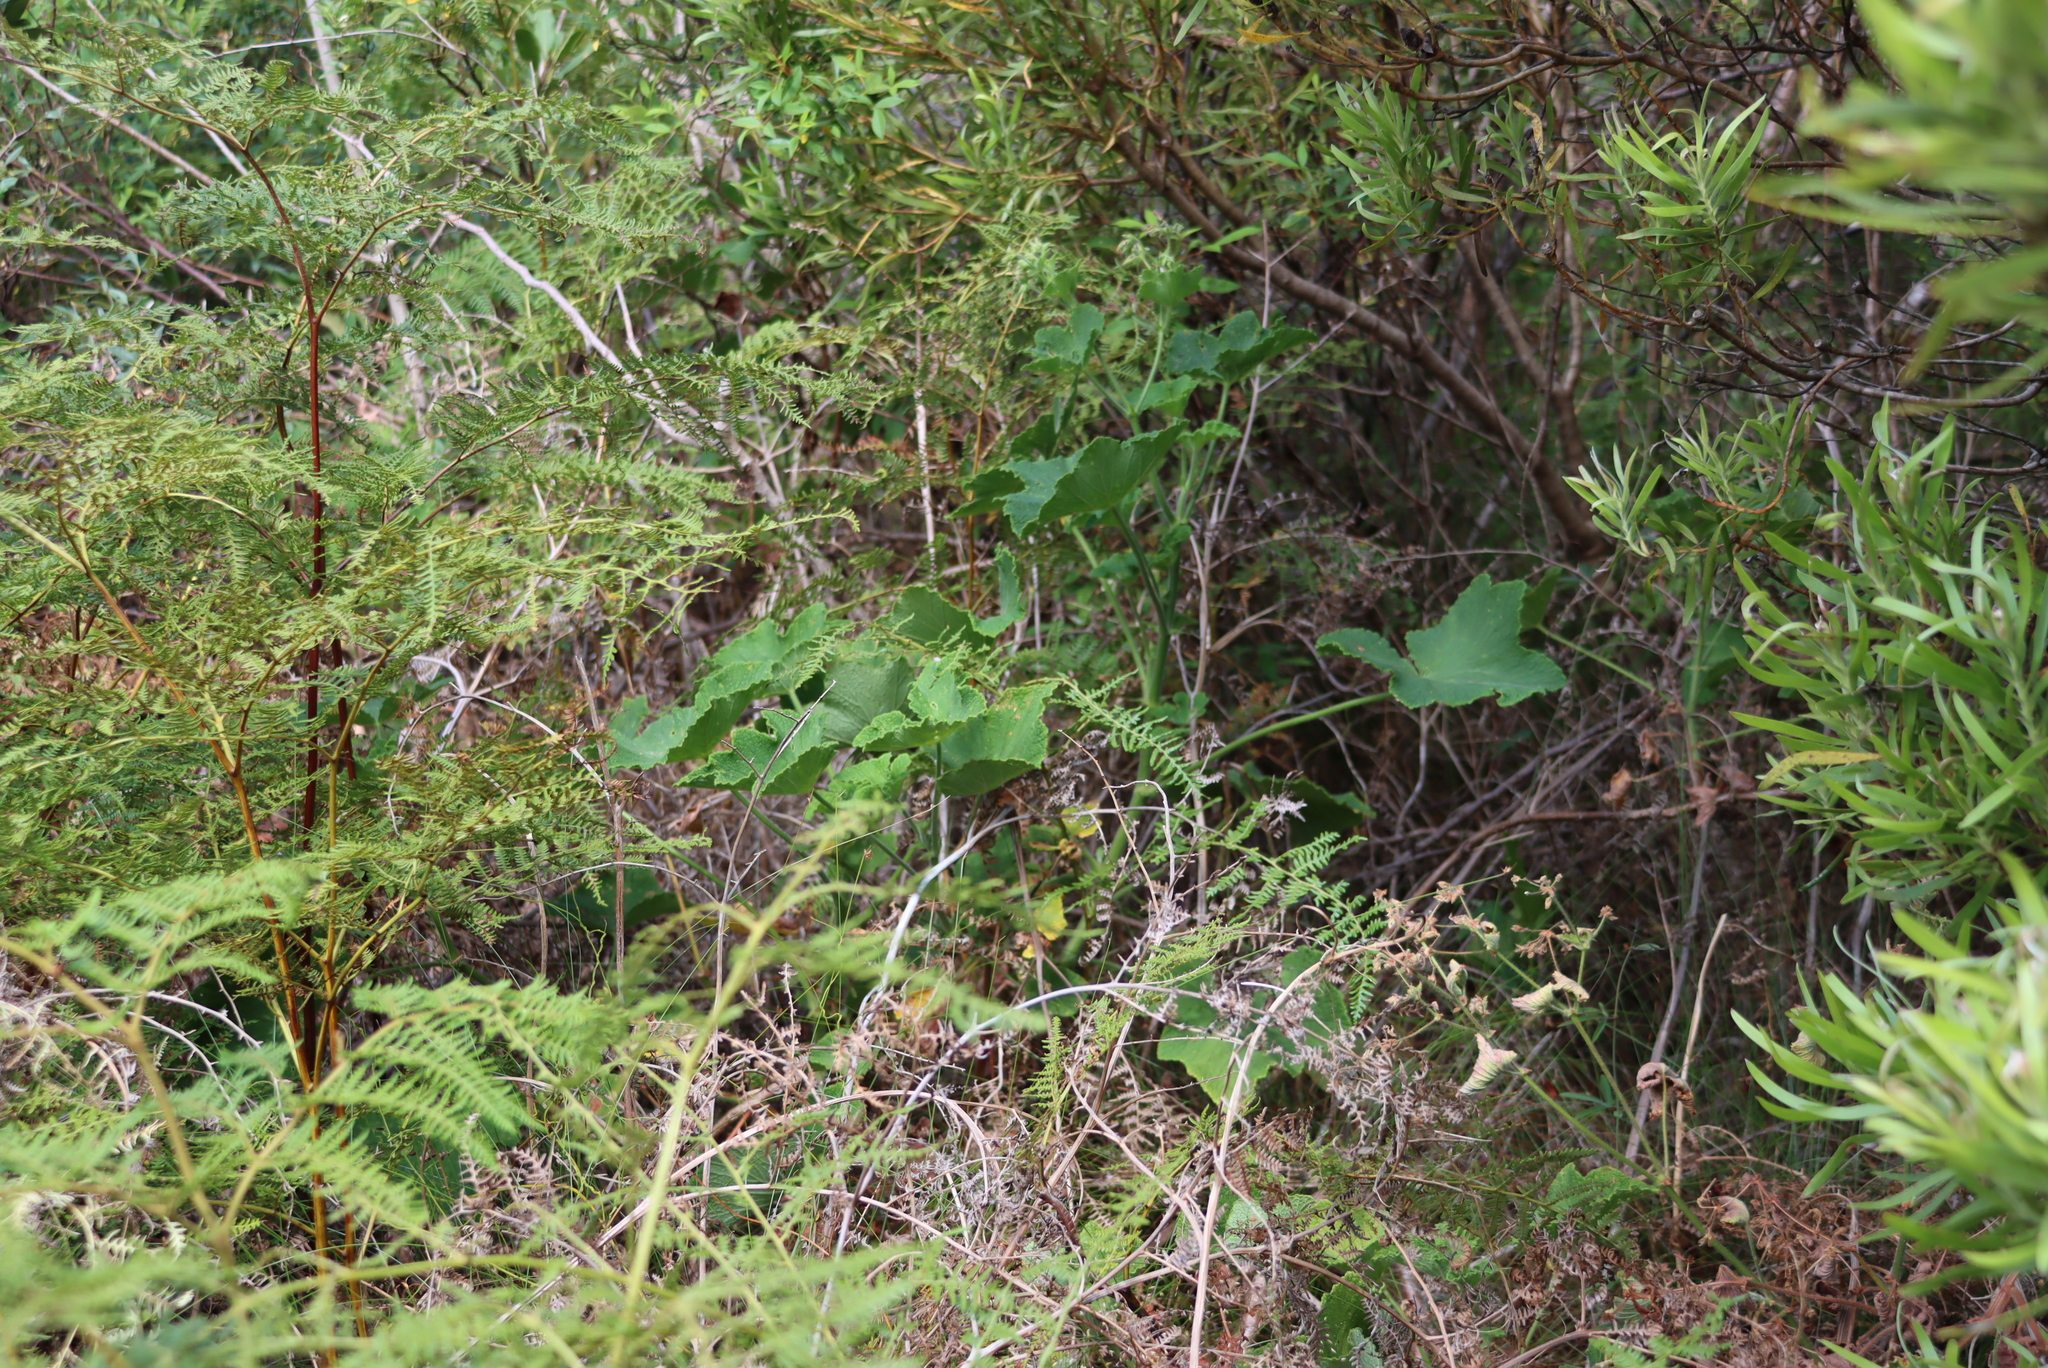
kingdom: Plantae
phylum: Tracheophyta
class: Magnoliopsida
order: Geraniales
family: Geraniaceae
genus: Pelargonium
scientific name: Pelargonium papilionaceum
